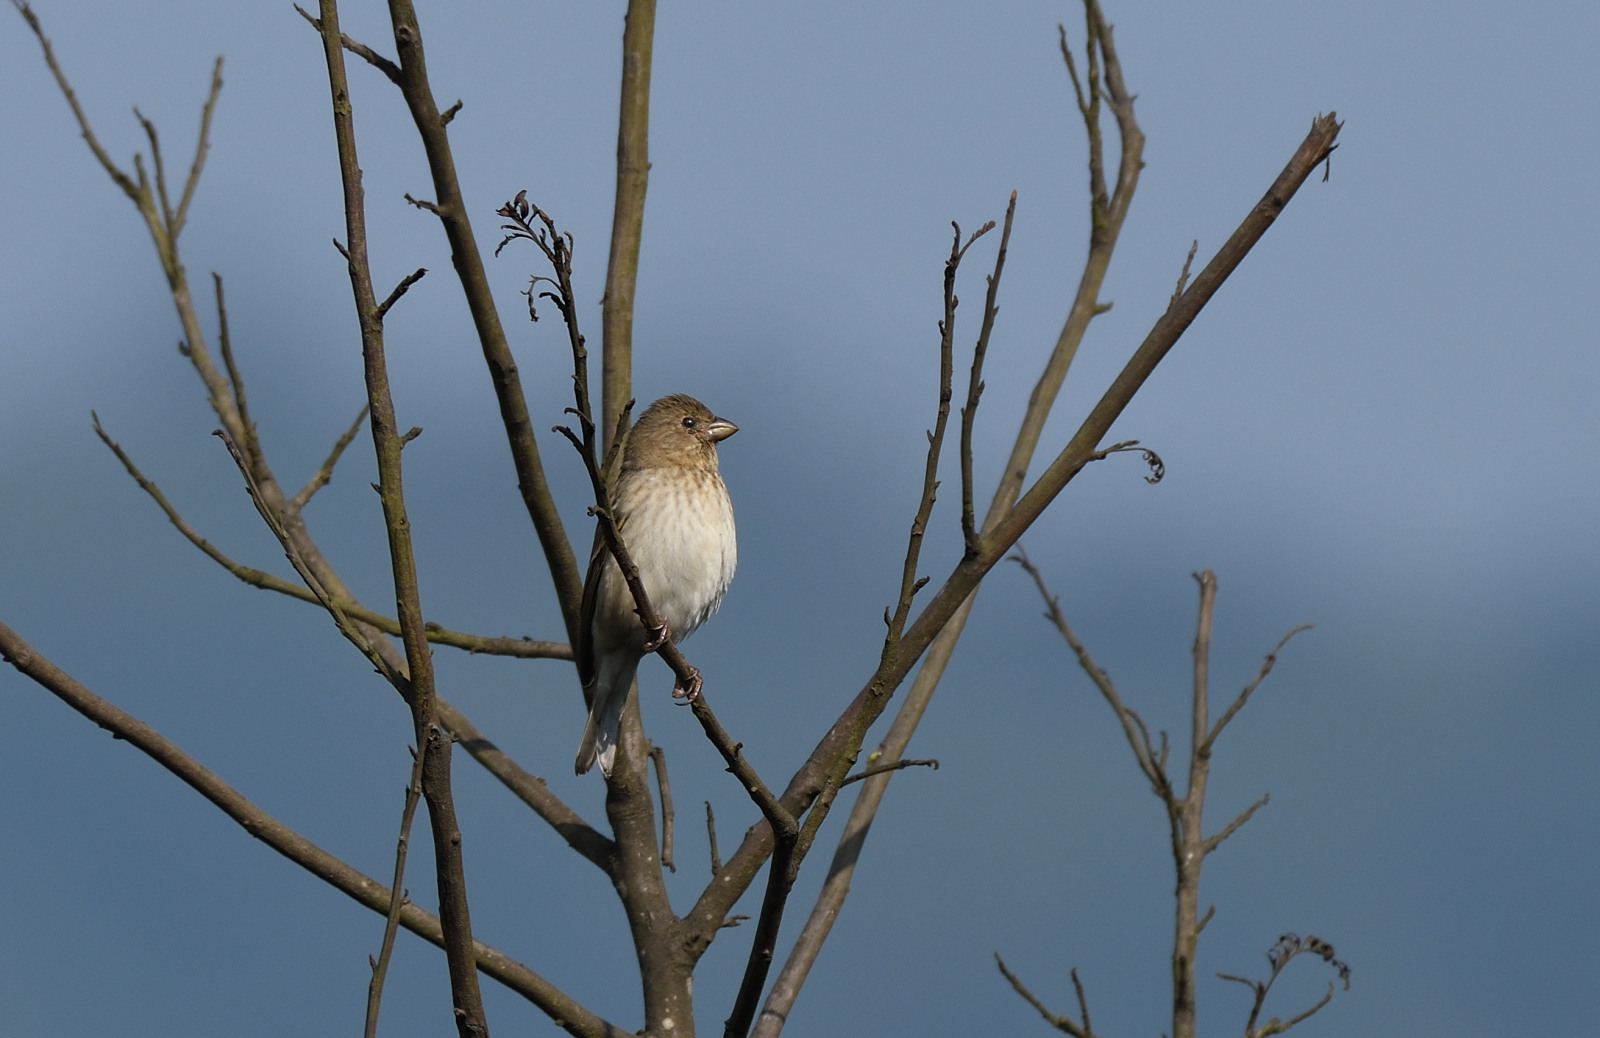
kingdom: Animalia
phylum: Chordata
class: Aves
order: Passeriformes
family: Fringillidae
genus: Carpodacus
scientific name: Carpodacus erythrinus
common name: Common rosefinch
